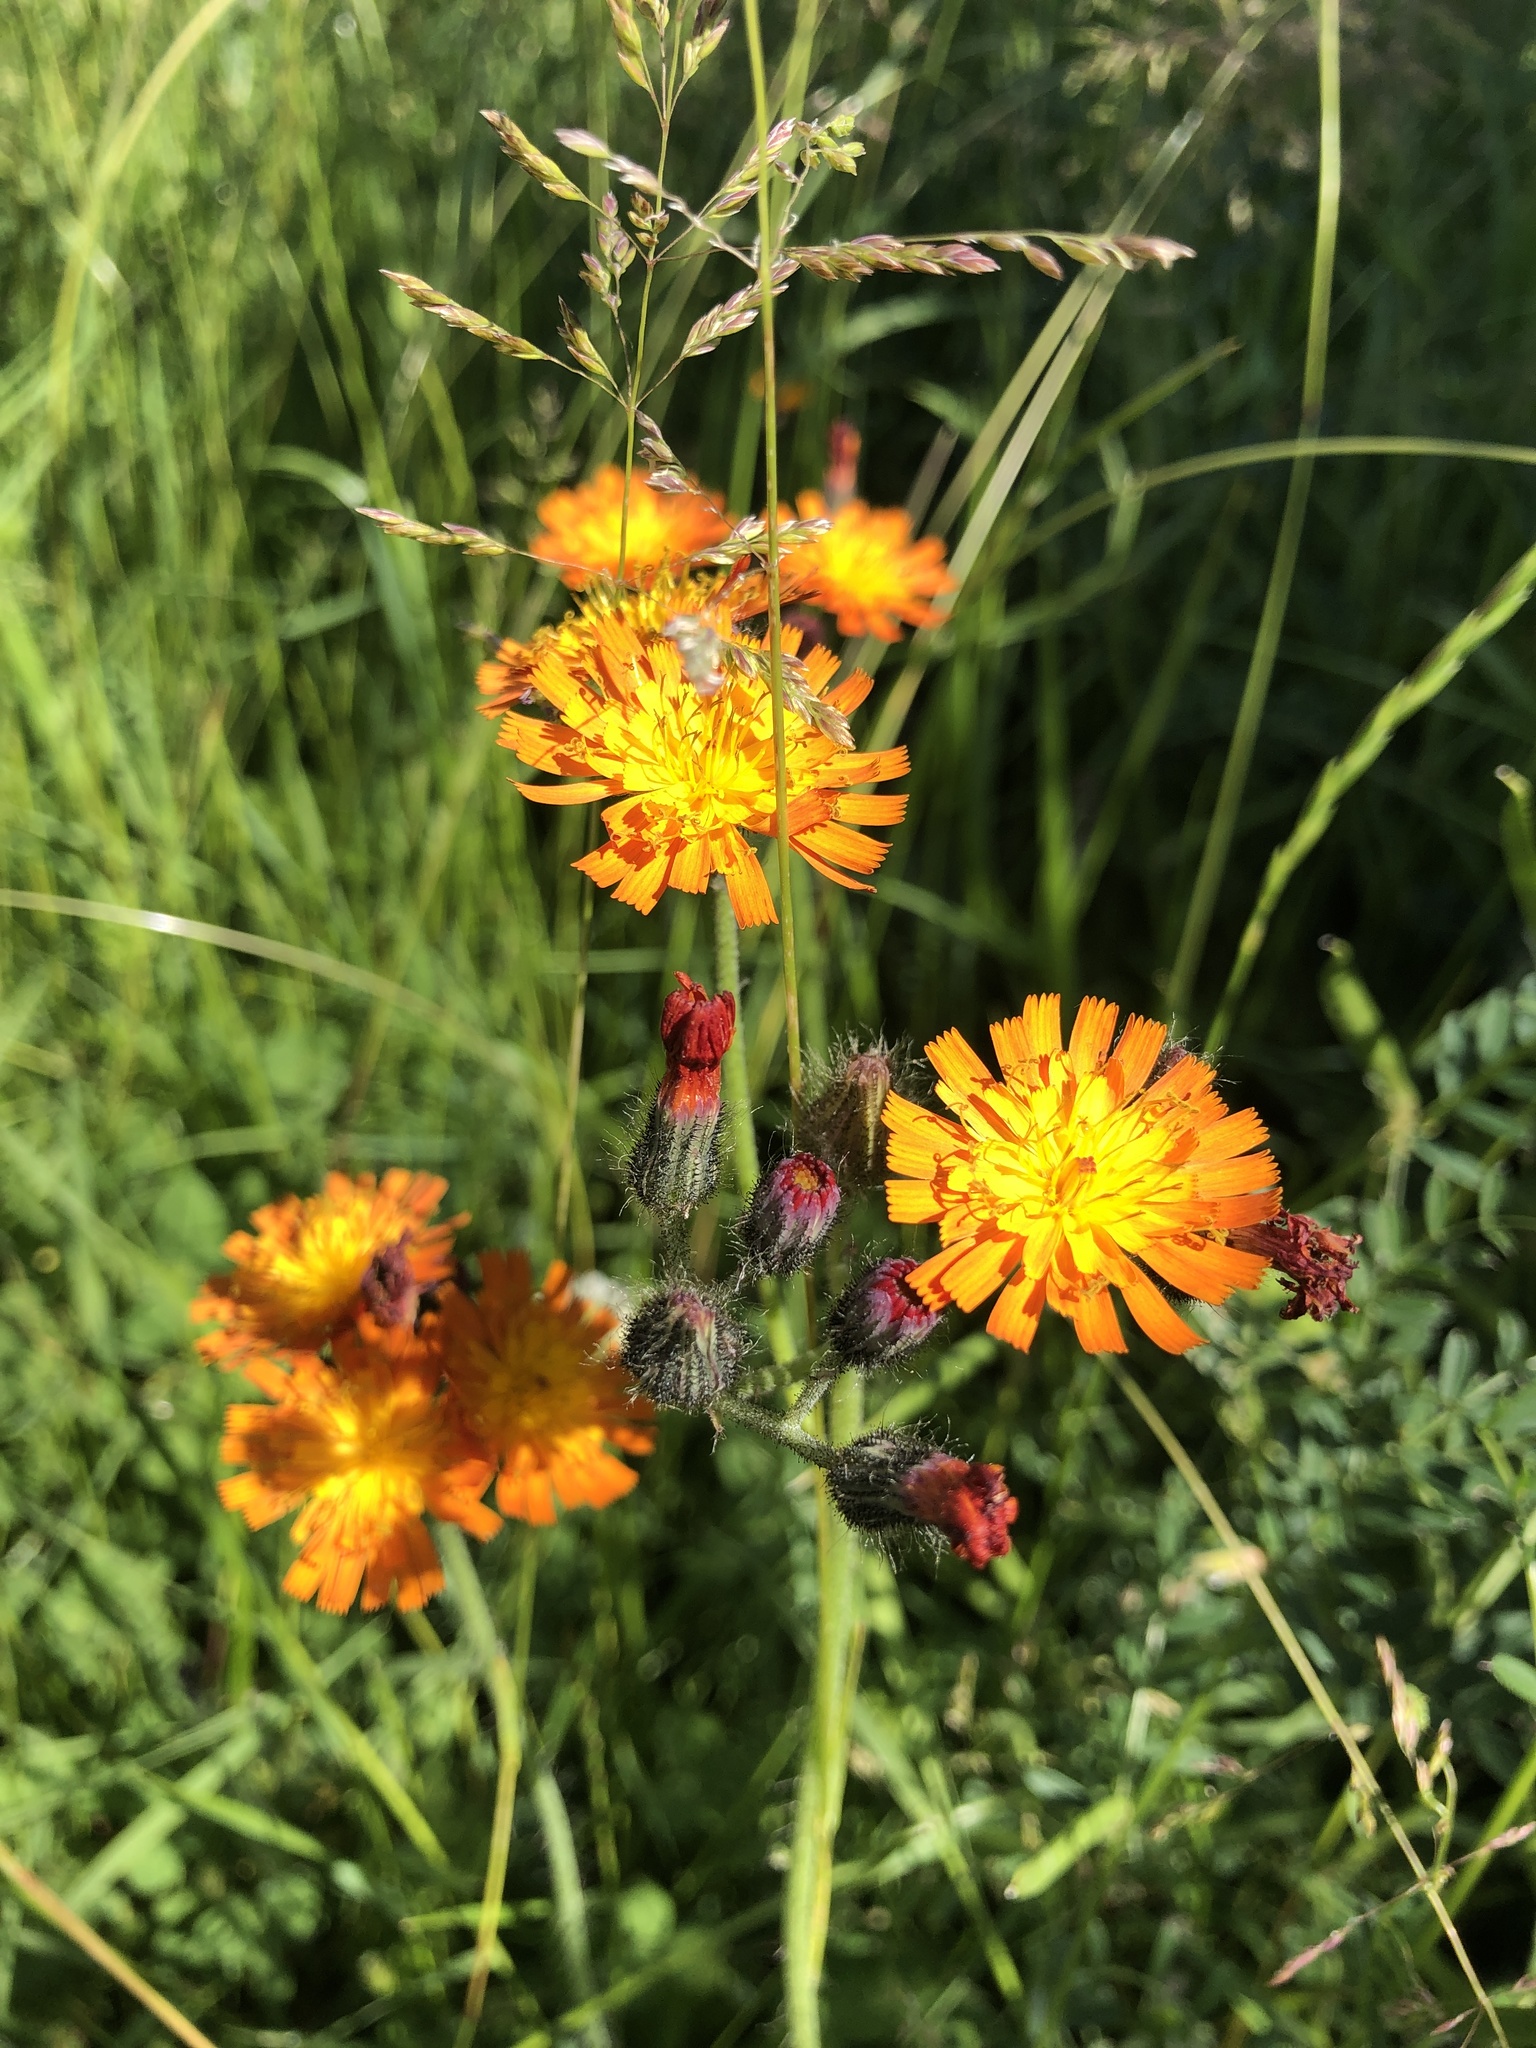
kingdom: Plantae
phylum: Tracheophyta
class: Magnoliopsida
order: Asterales
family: Asteraceae
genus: Pilosella
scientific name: Pilosella aurantiaca
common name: Fox-and-cubs
